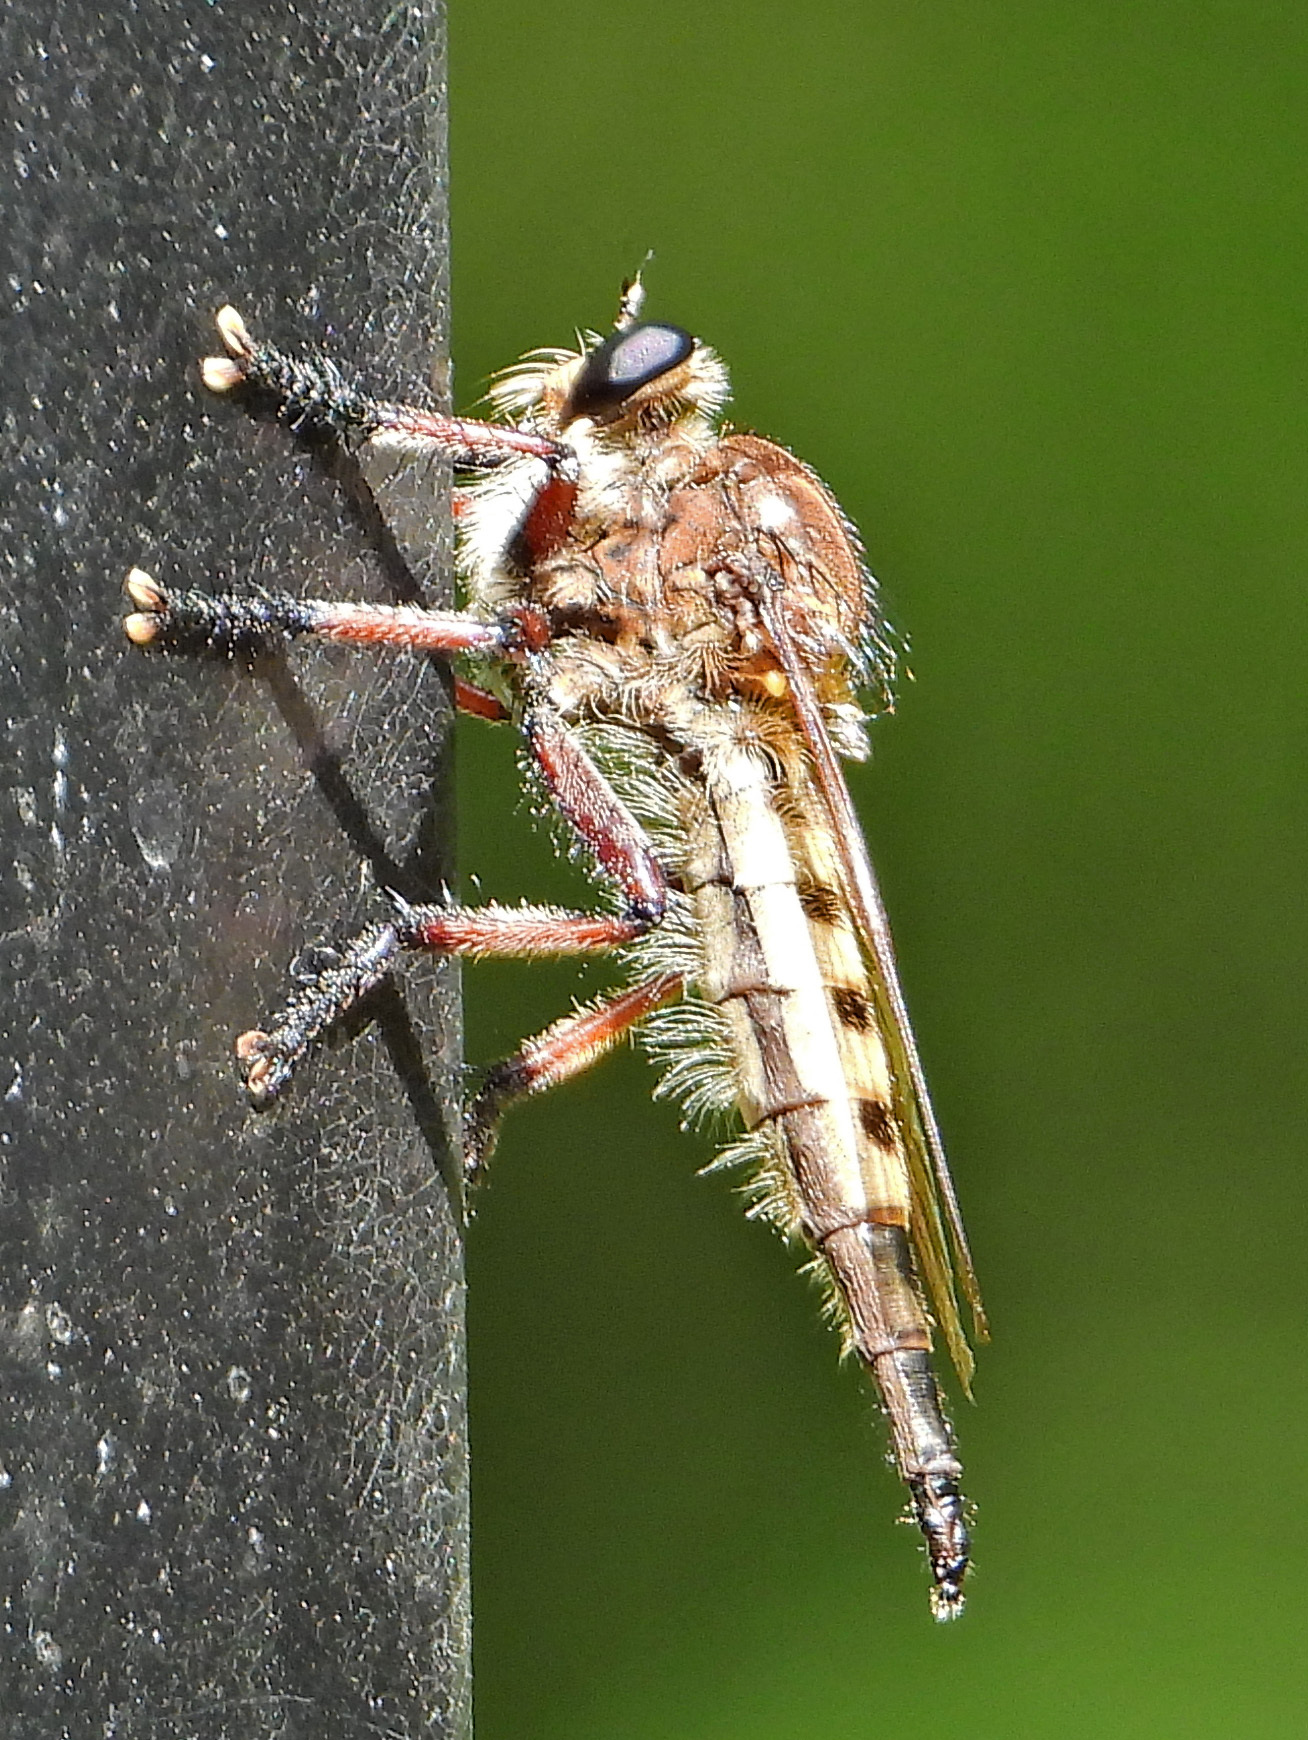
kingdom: Animalia
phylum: Arthropoda
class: Insecta
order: Diptera
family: Asilidae
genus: Promachus
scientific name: Promachus hinei
